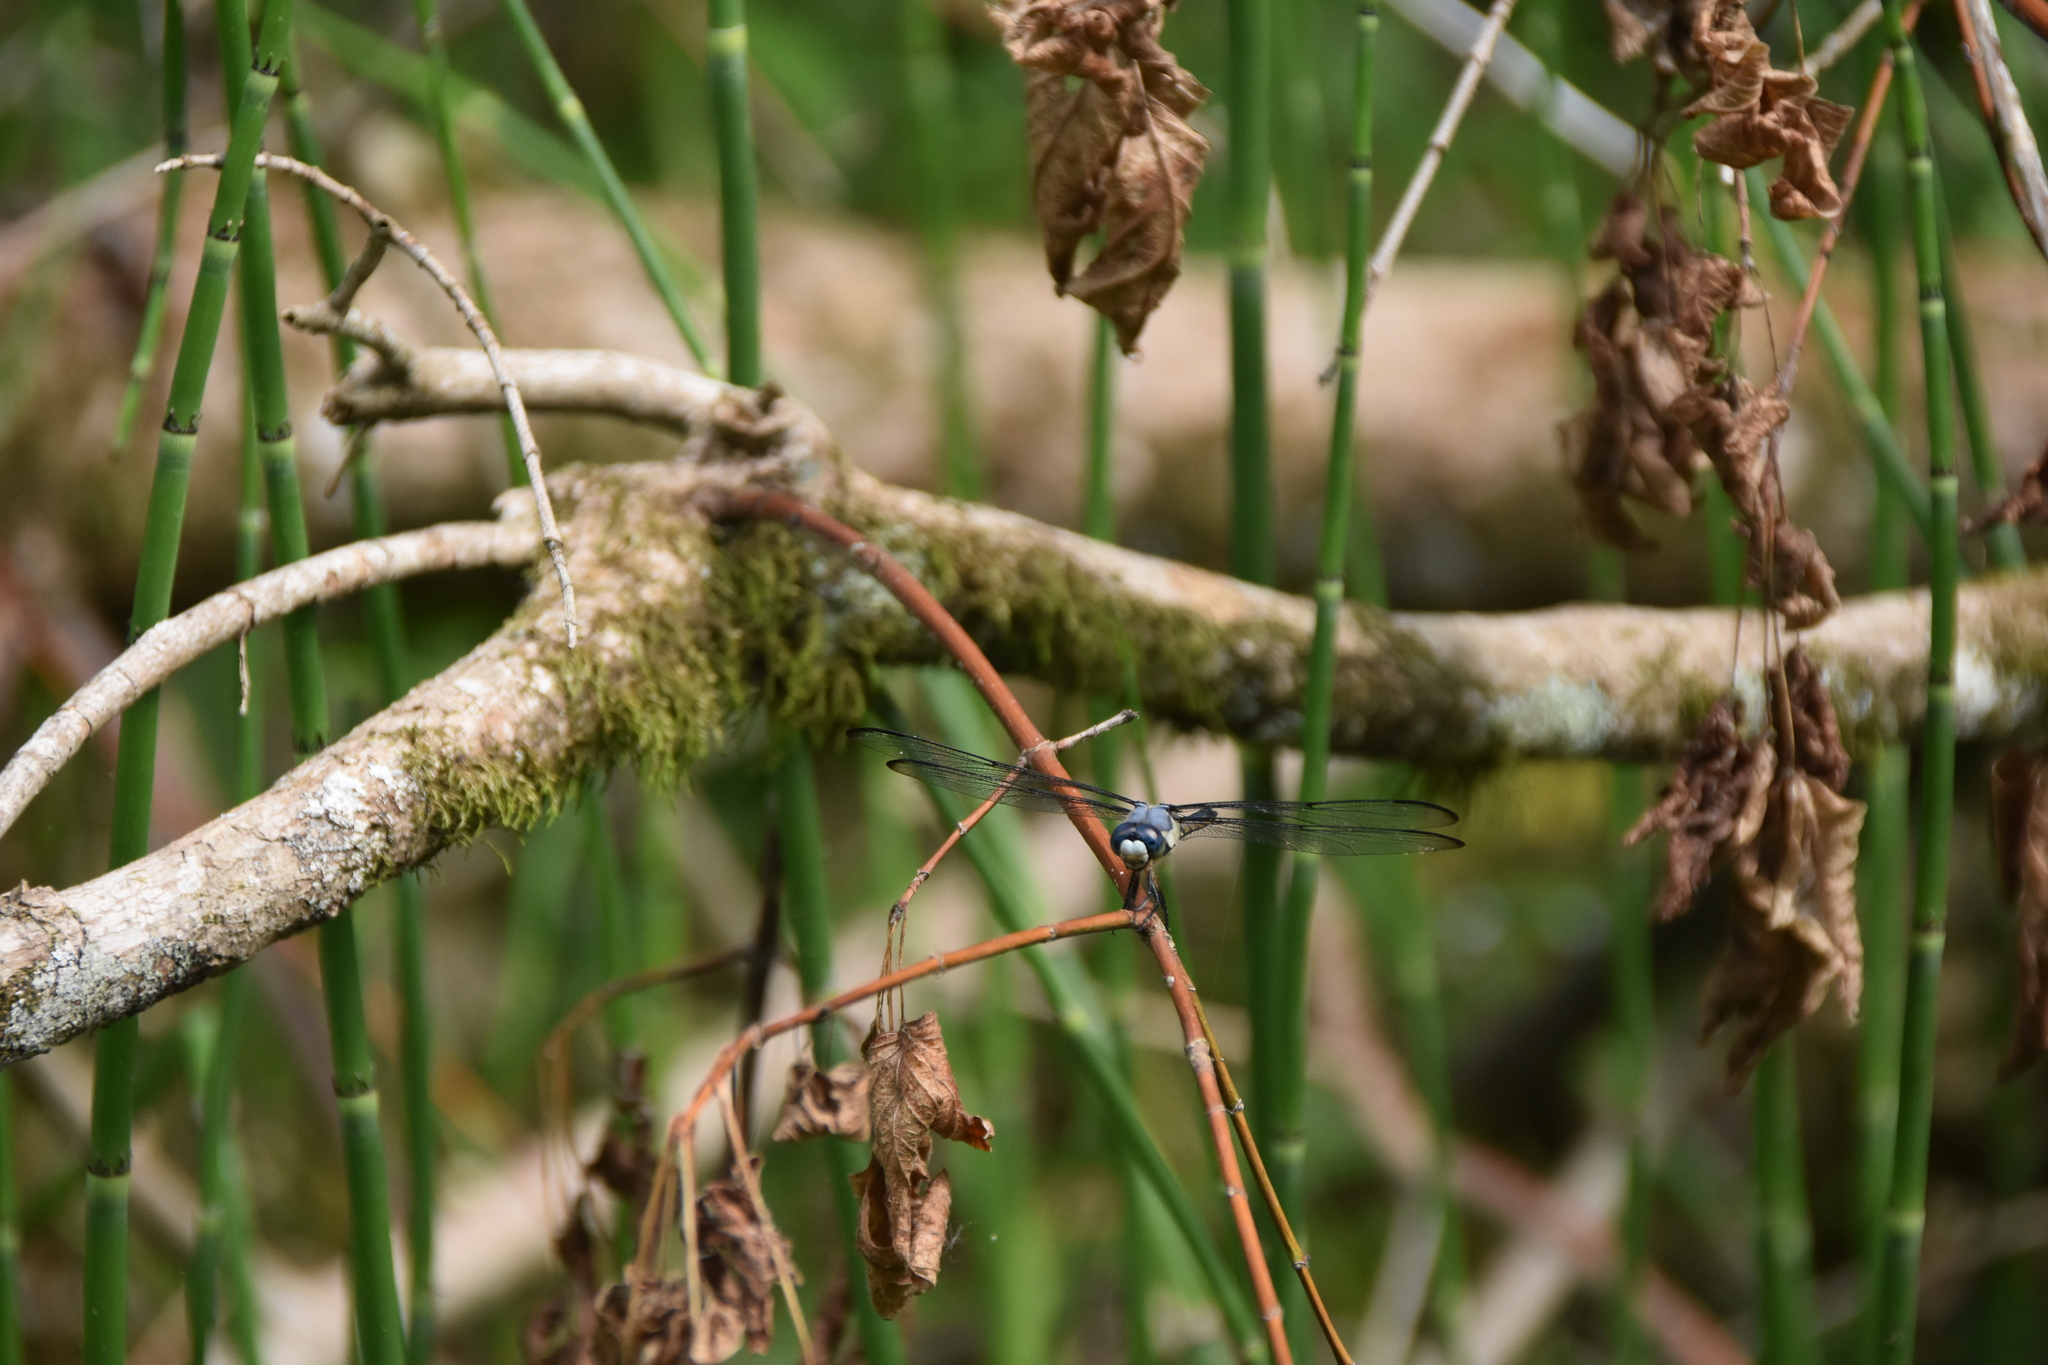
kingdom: Animalia
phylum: Arthropoda
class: Insecta
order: Odonata
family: Libellulidae
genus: Libellula
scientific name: Libellula vibrans
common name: Great blue skimmer
